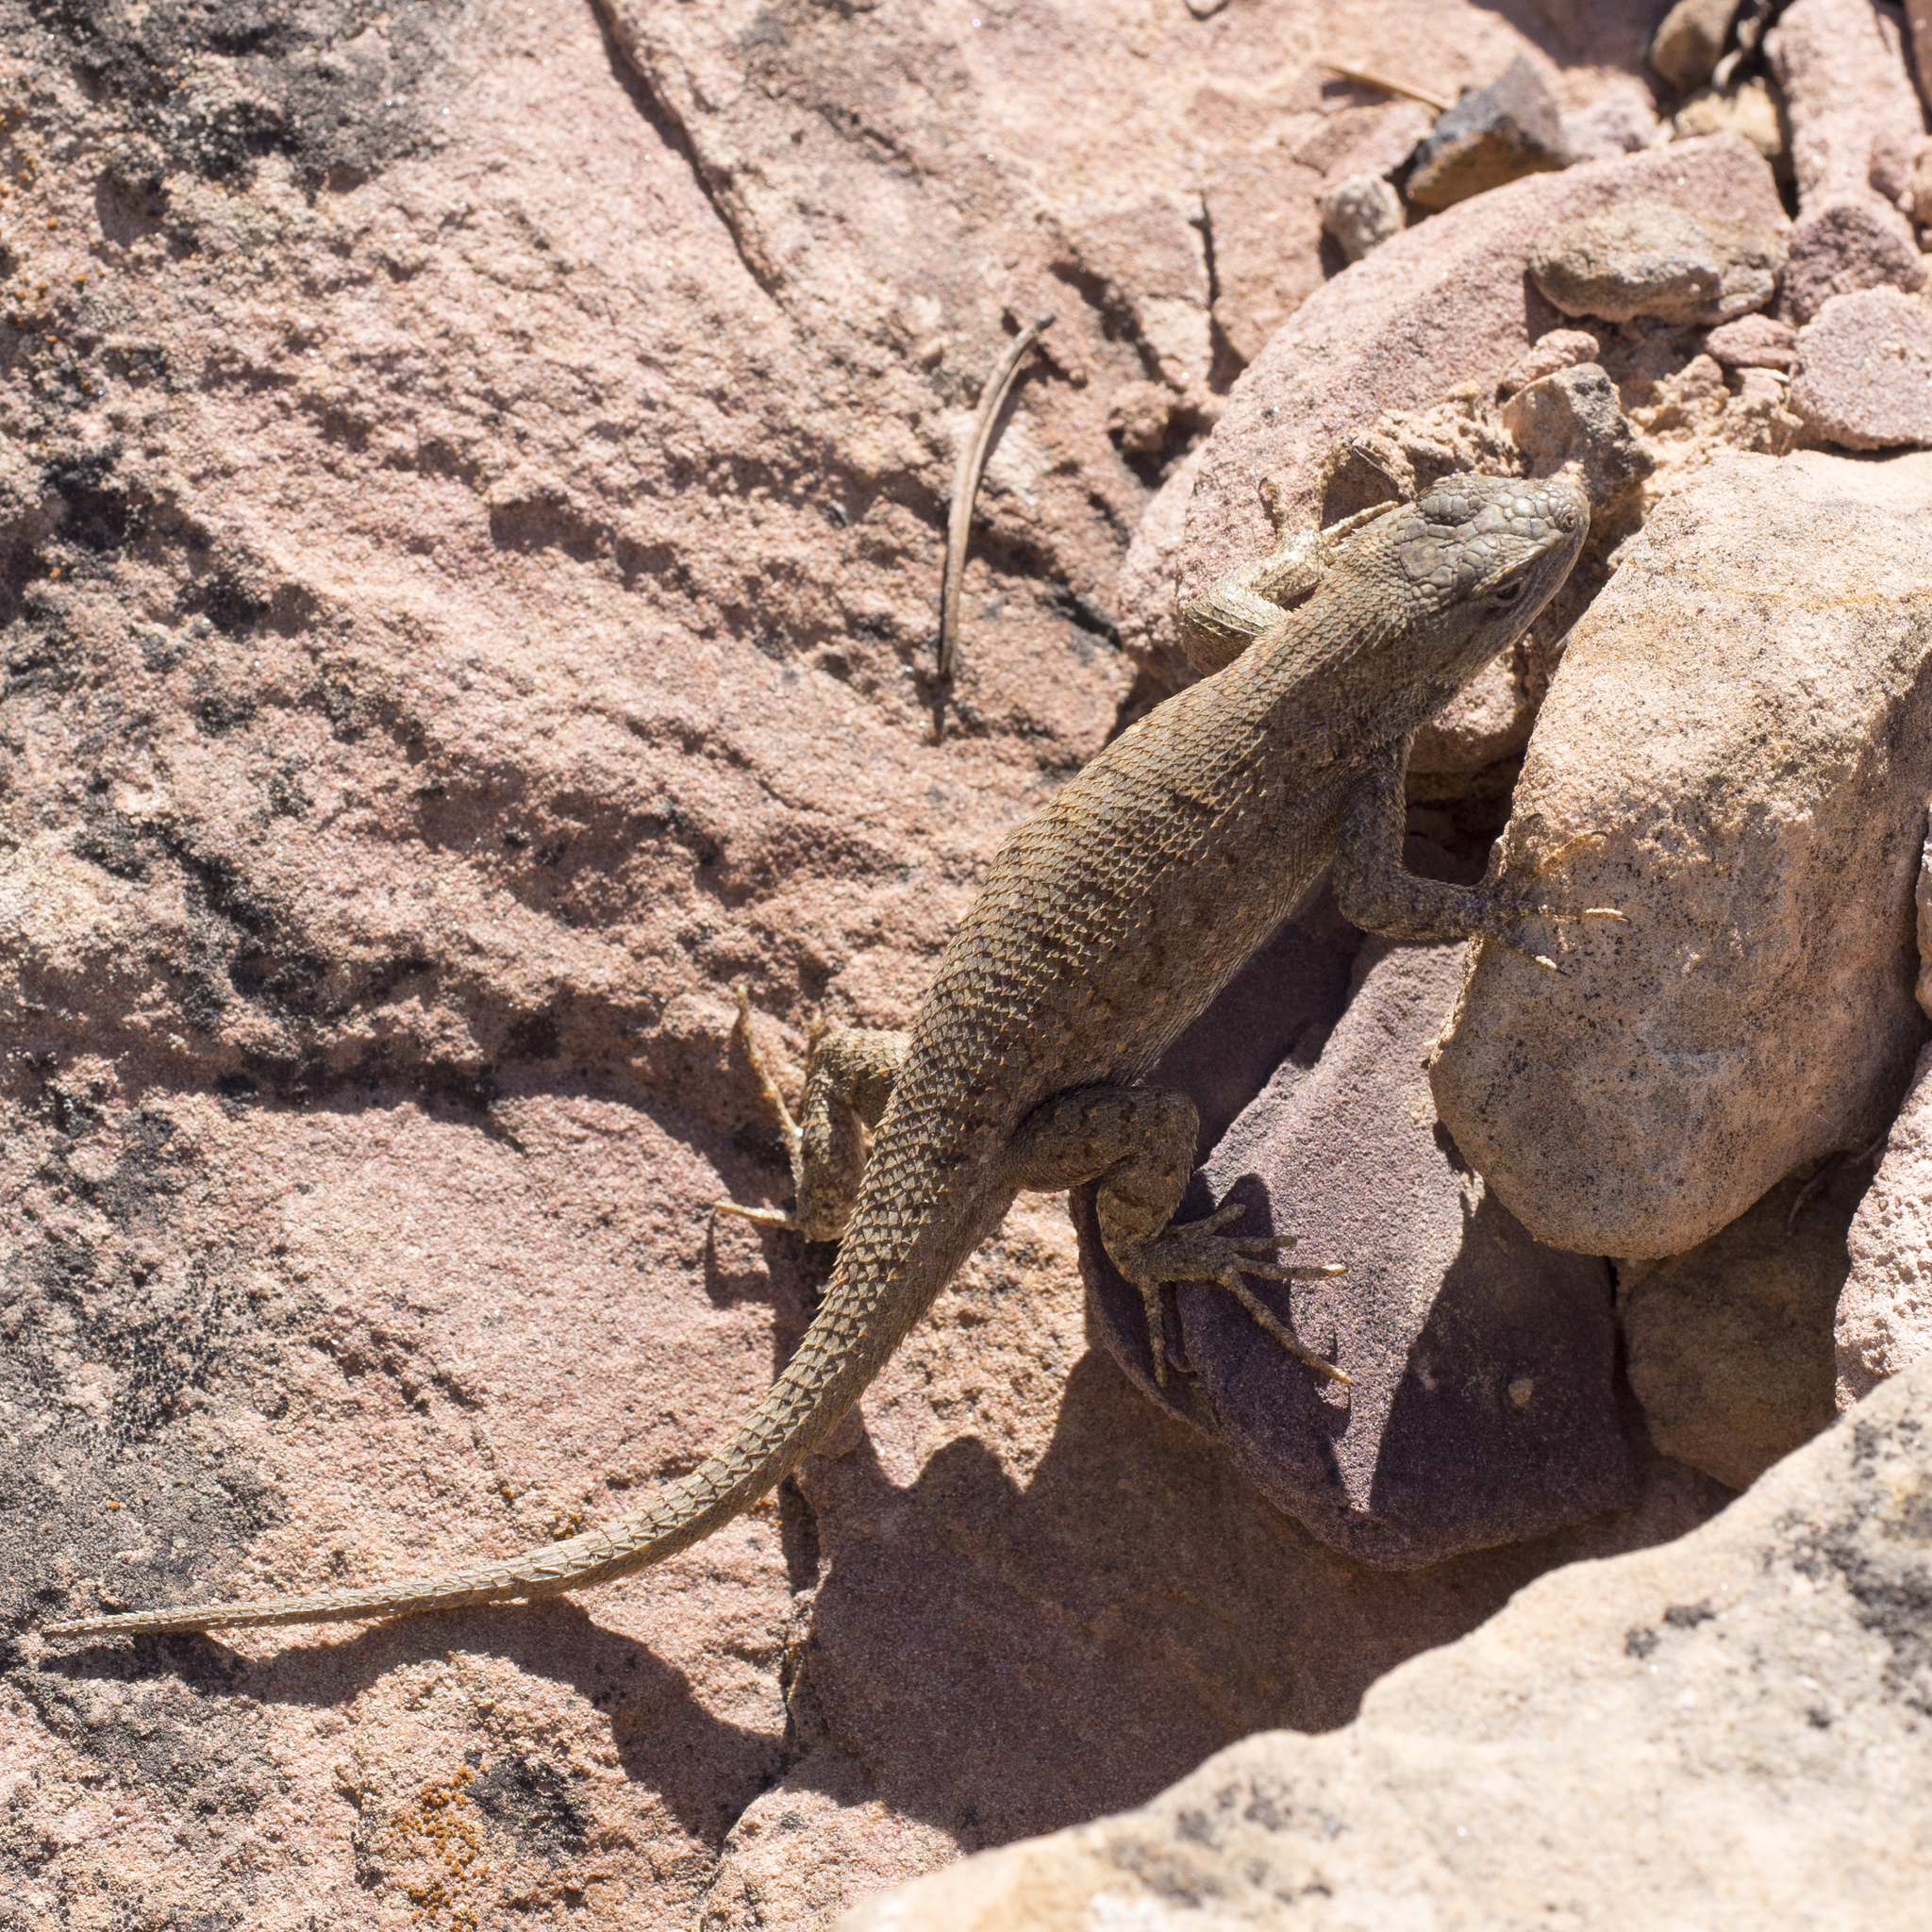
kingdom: Animalia
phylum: Chordata
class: Squamata
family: Phrynosomatidae
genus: Sceloporus
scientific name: Sceloporus tristichus
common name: Plateau fence lizard
